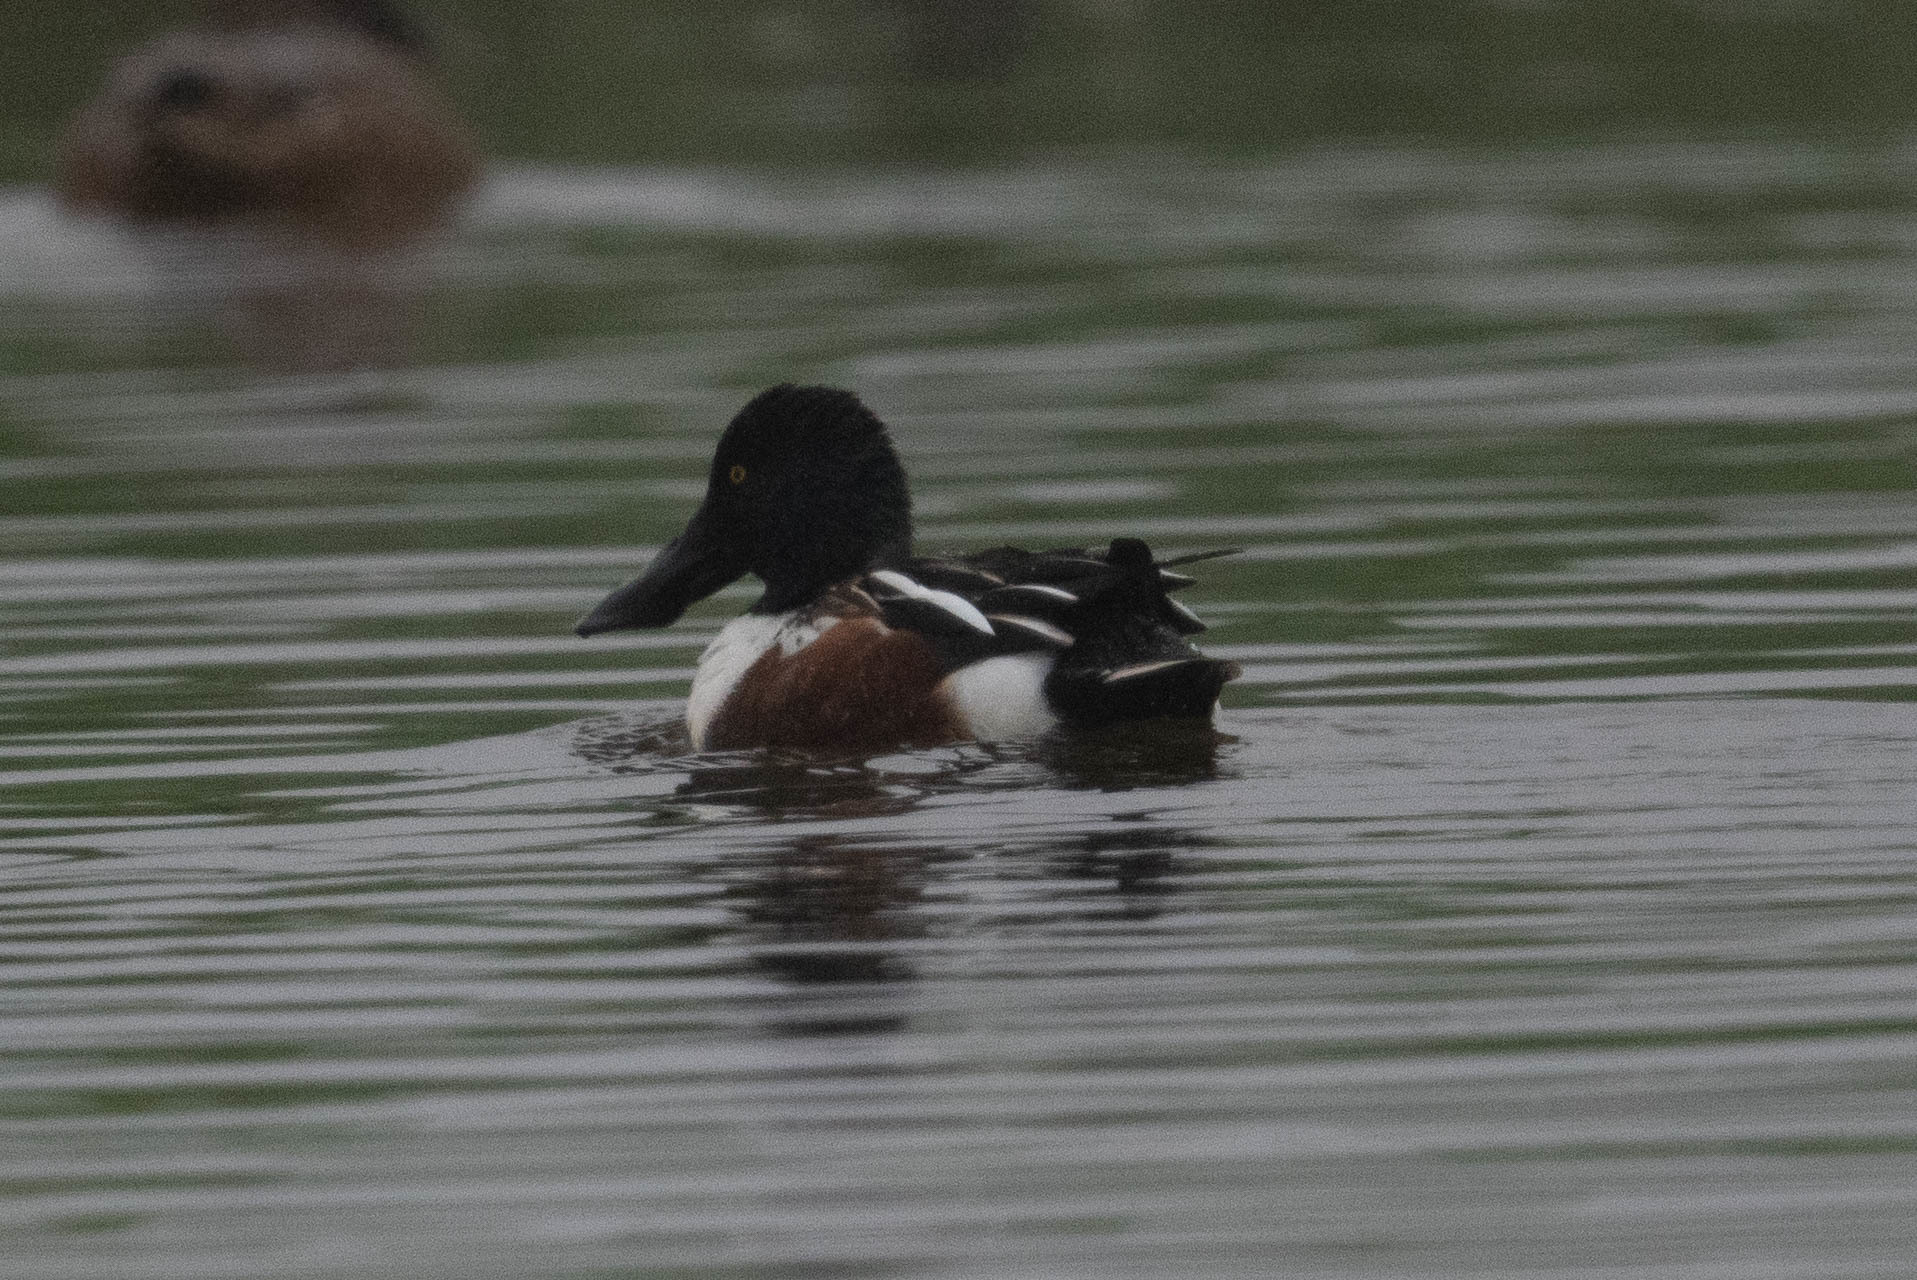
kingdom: Animalia
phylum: Chordata
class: Aves
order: Anseriformes
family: Anatidae
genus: Spatula
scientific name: Spatula clypeata
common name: Northern shoveler
